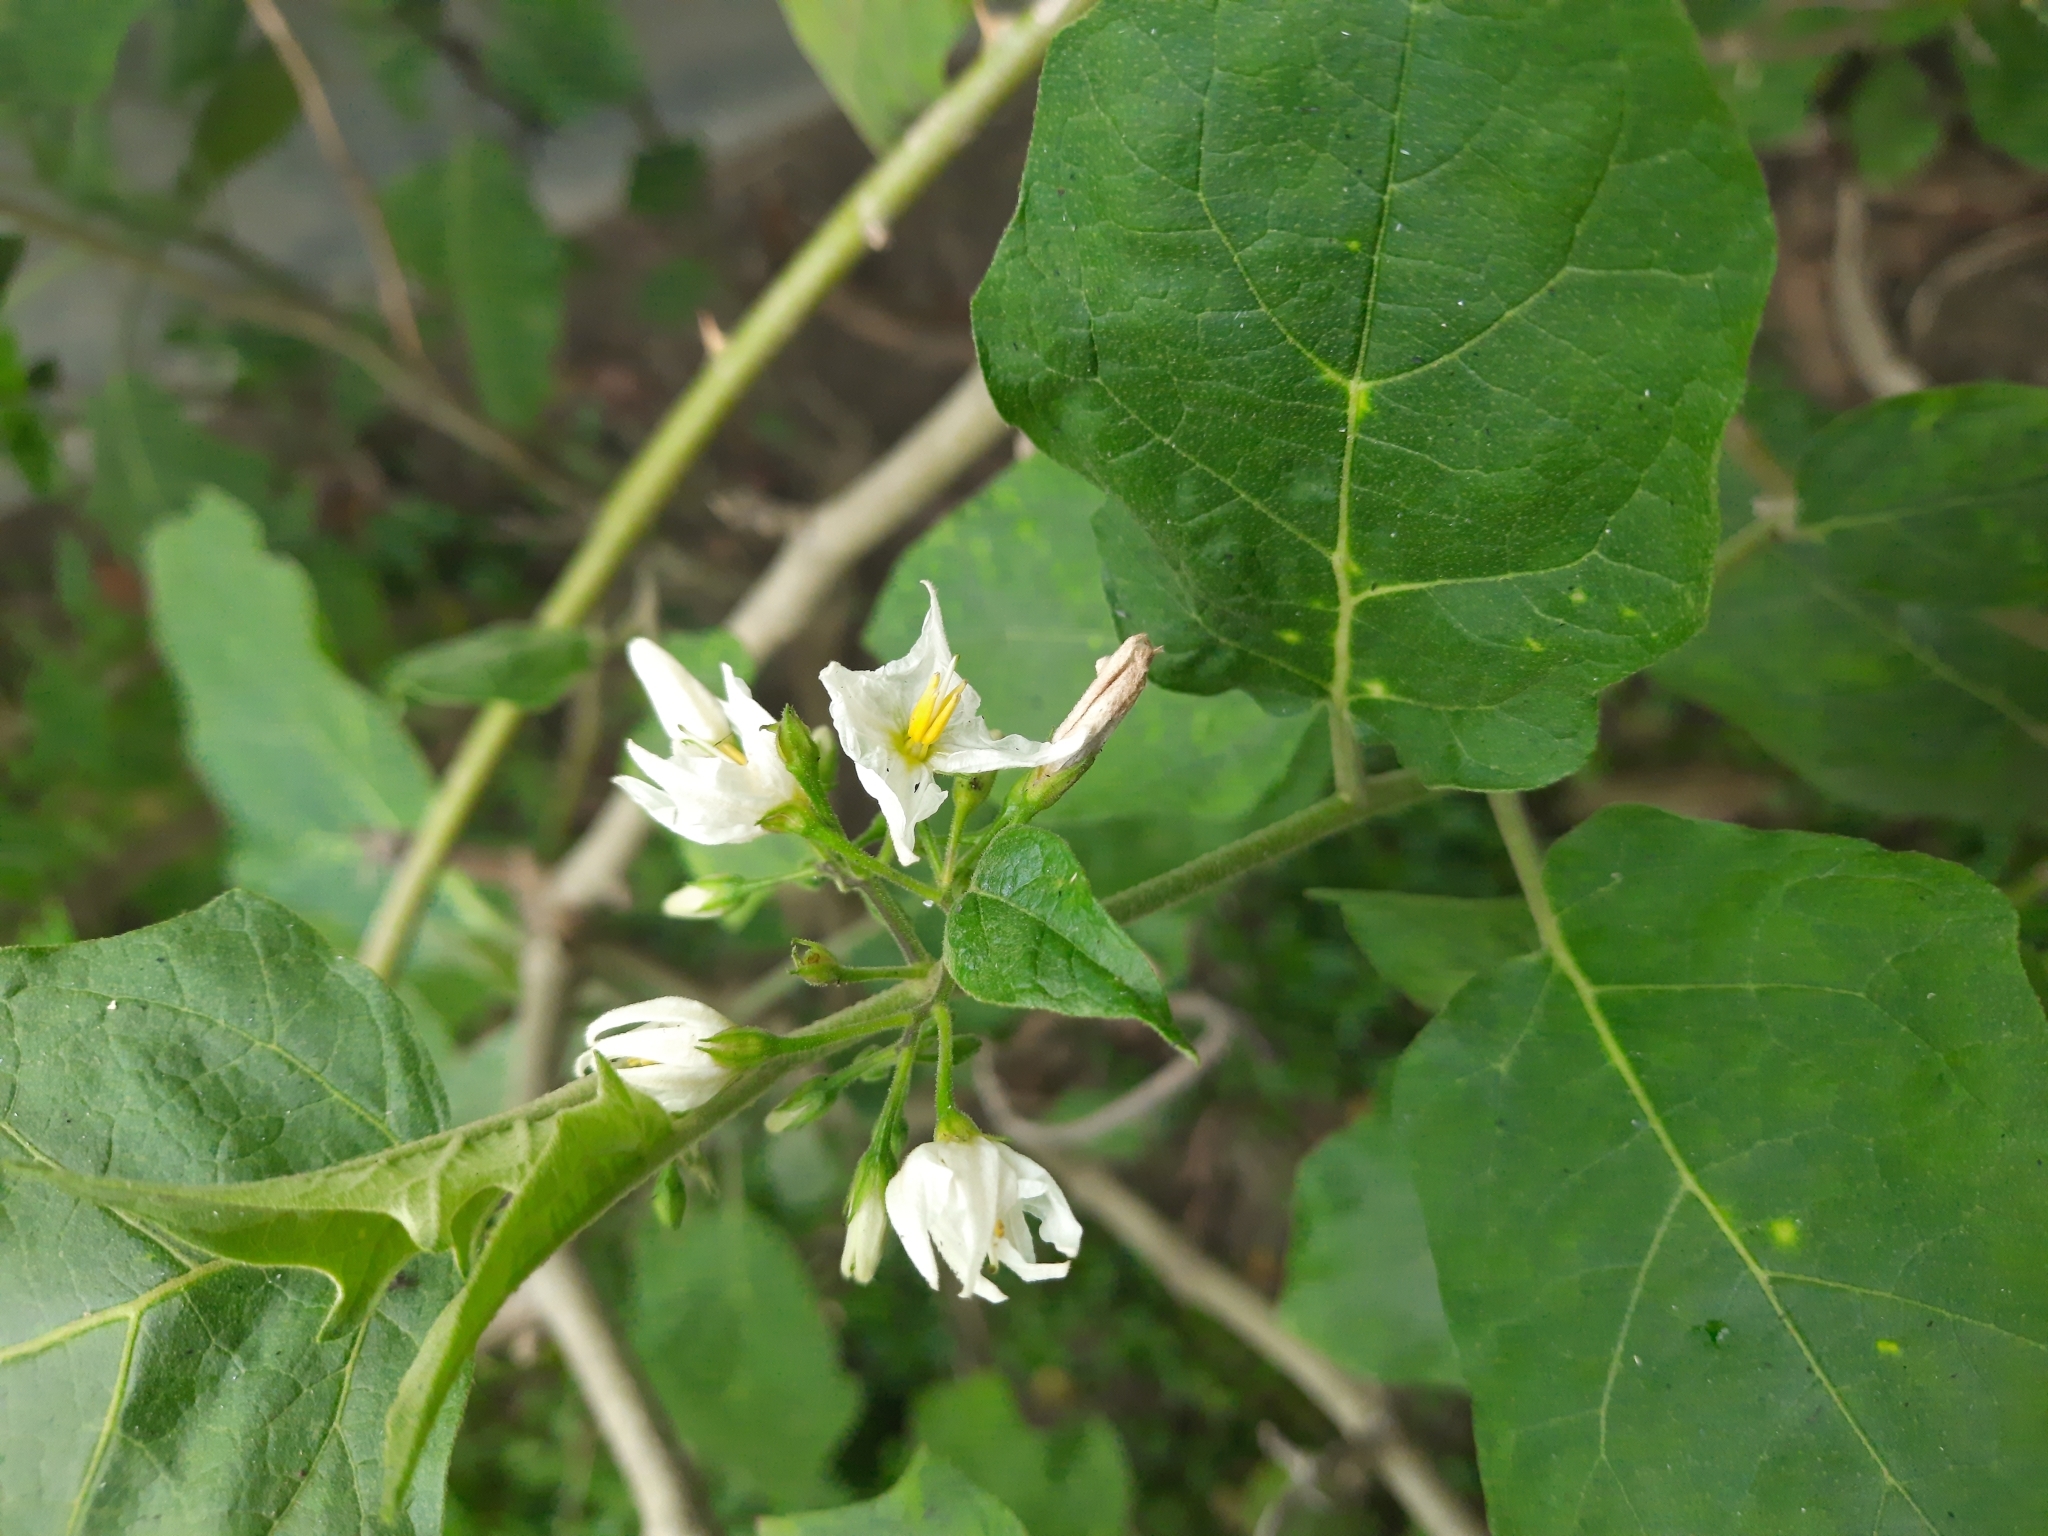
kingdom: Plantae
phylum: Tracheophyta
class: Magnoliopsida
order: Solanales
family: Solanaceae
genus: Solanum
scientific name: Solanum torvum
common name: Turkey berry
